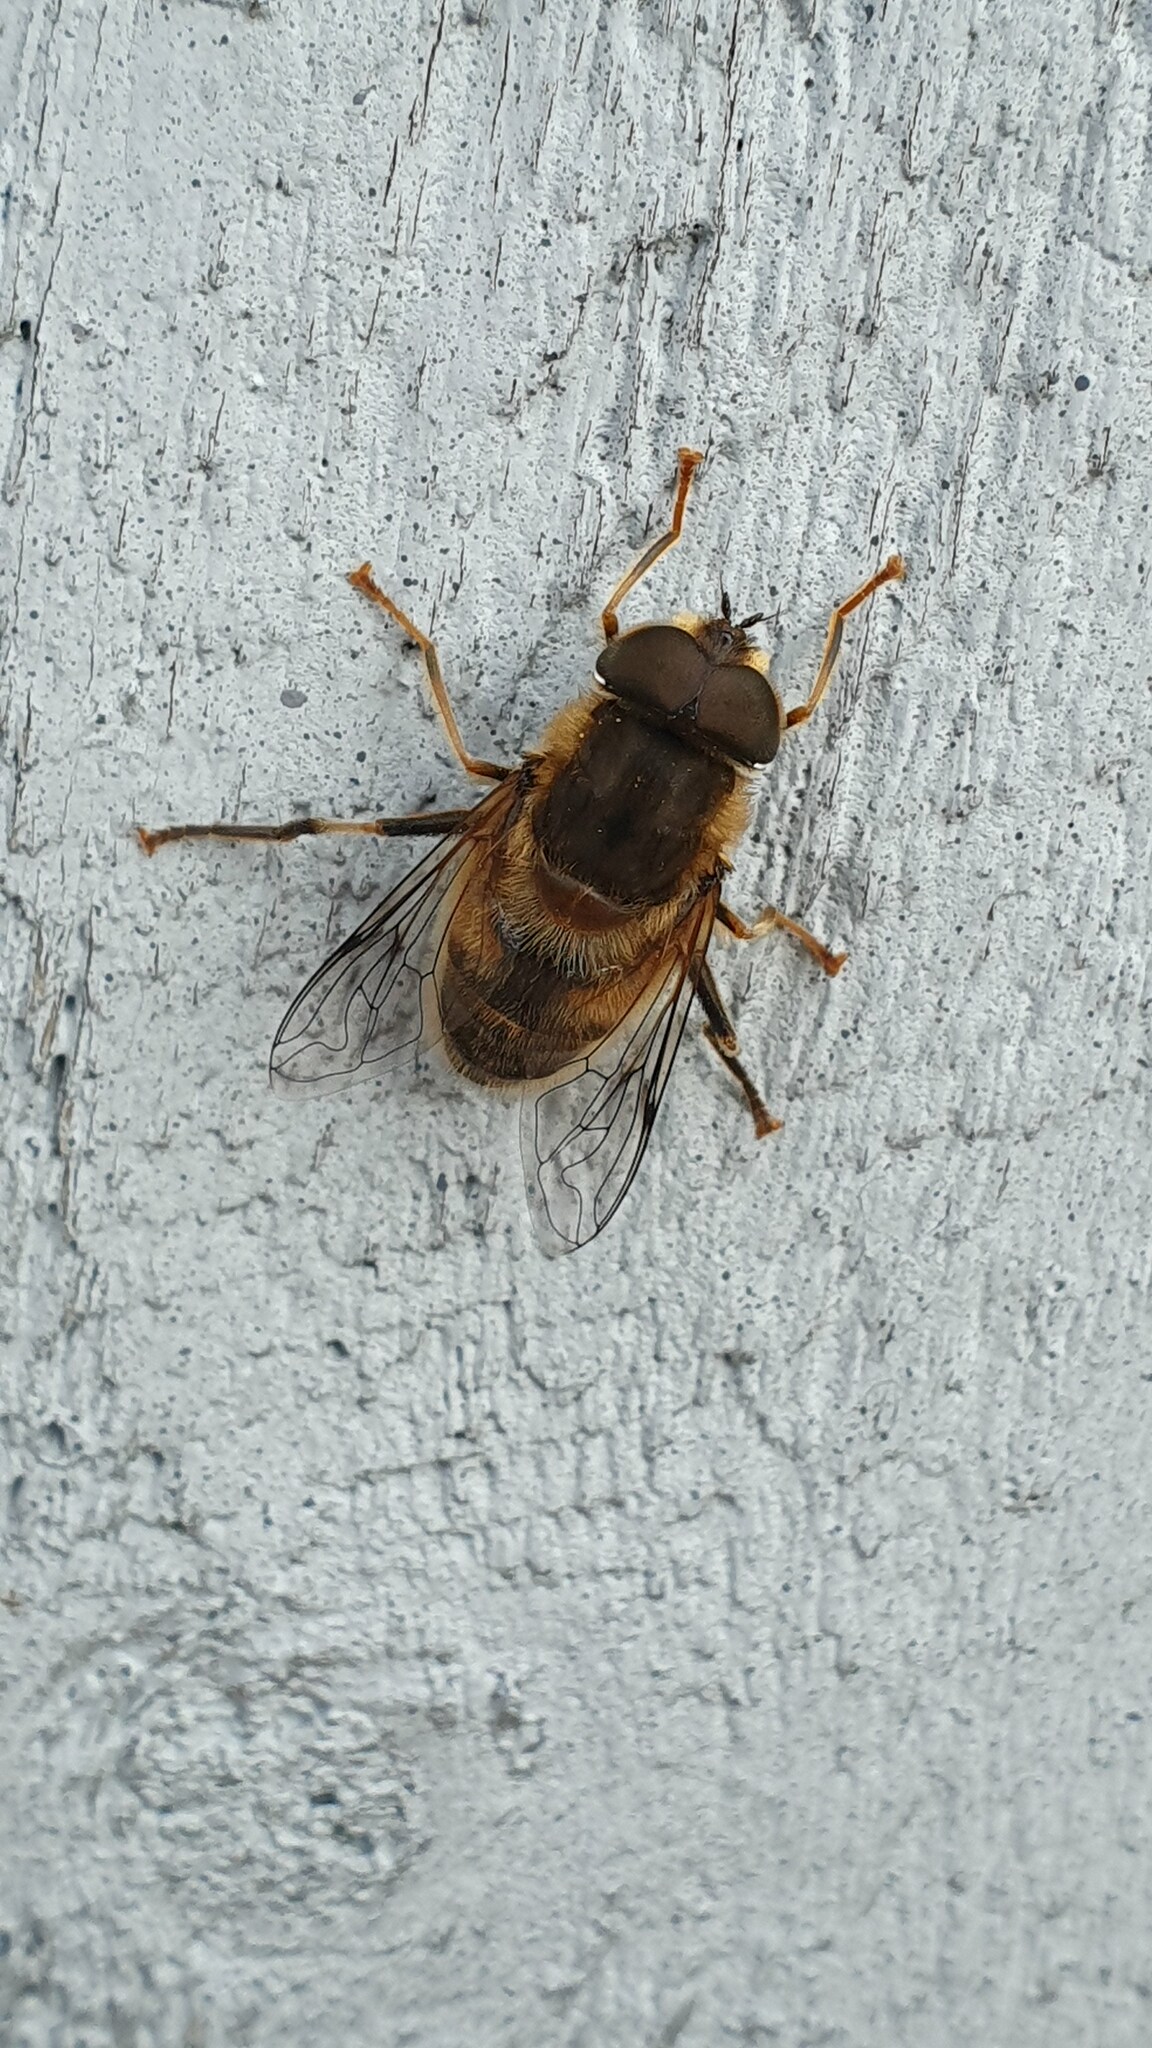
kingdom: Animalia
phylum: Arthropoda
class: Insecta
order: Diptera
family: Syrphidae
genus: Eristalis
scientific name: Eristalis pertinax
